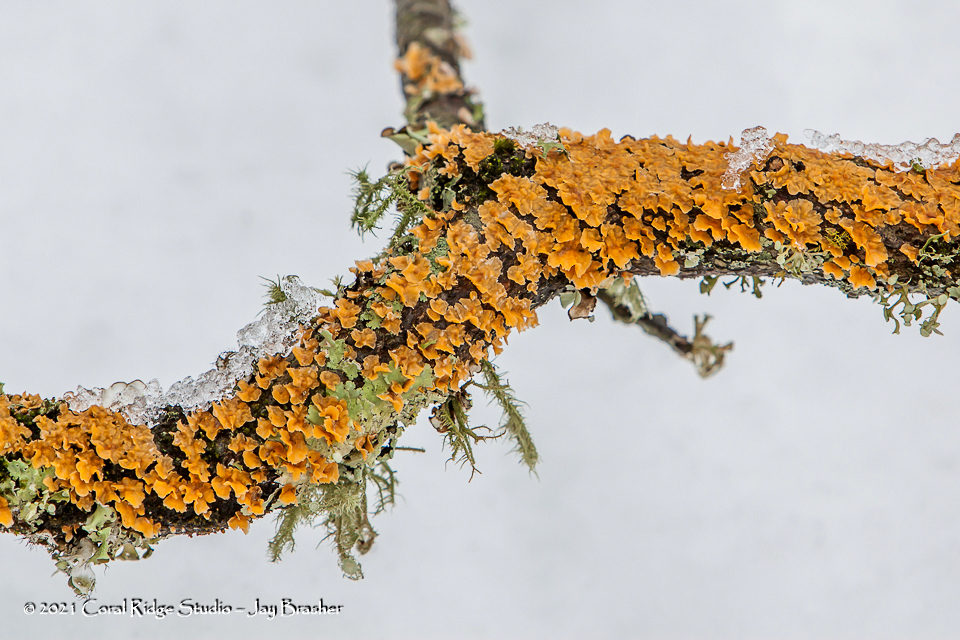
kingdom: Fungi
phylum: Basidiomycota
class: Agaricomycetes
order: Russulales
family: Stereaceae
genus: Stereum
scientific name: Stereum complicatum
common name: Crowded parchment
